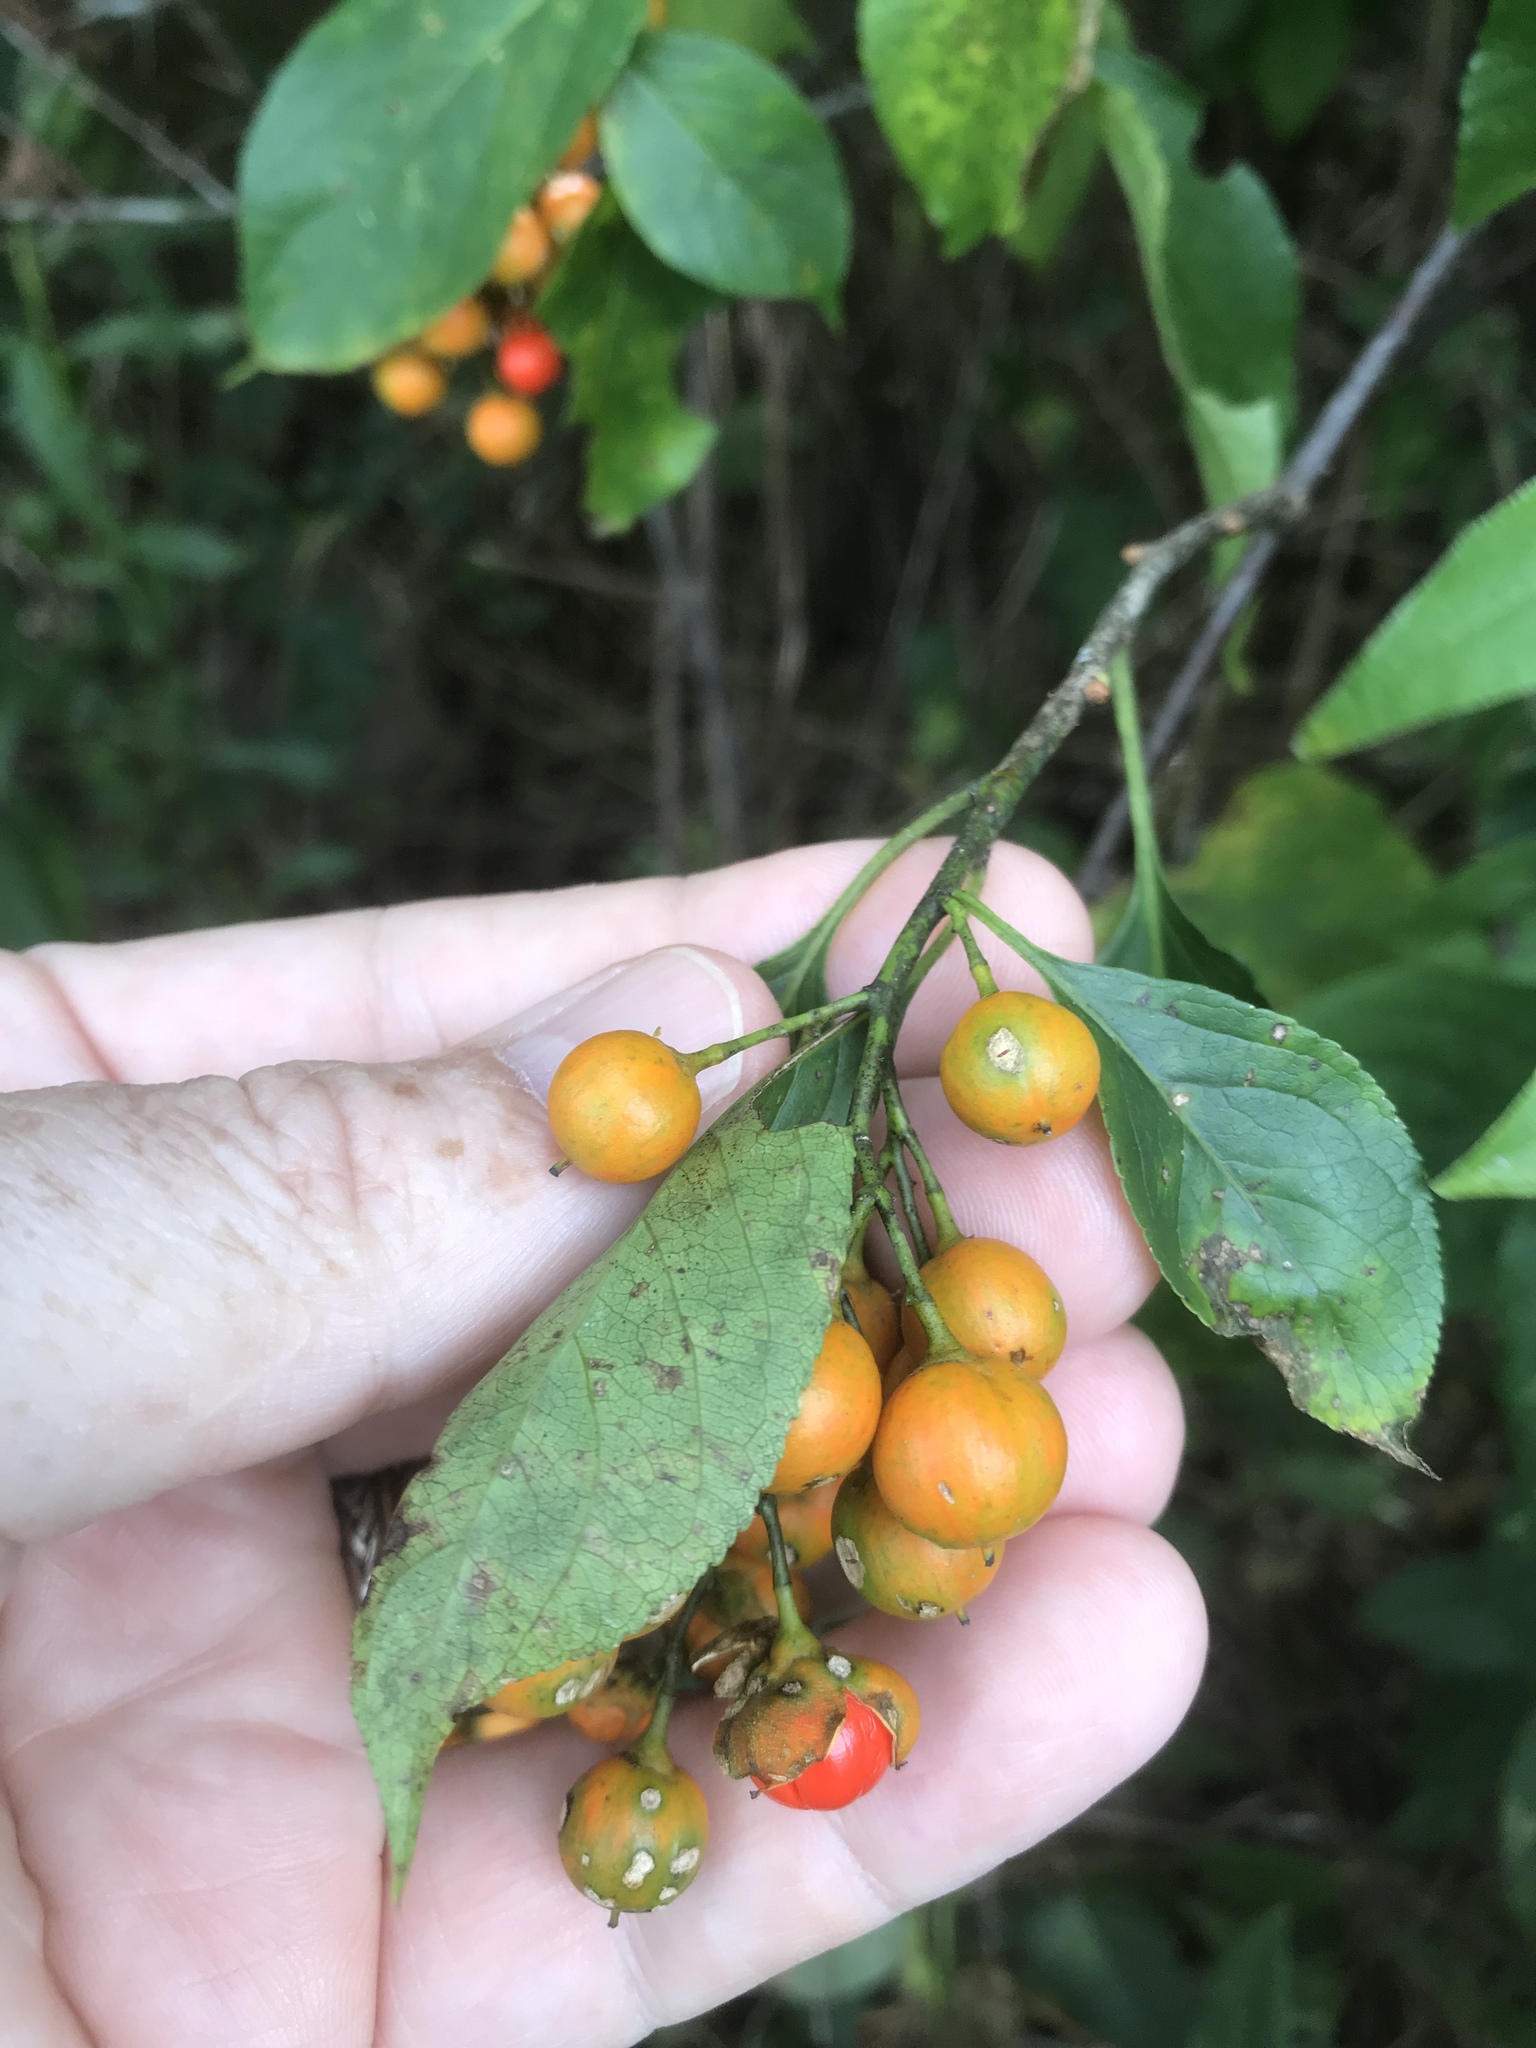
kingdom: Plantae
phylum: Tracheophyta
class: Magnoliopsida
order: Celastrales
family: Celastraceae
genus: Celastrus
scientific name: Celastrus scandens
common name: American bittersweet
